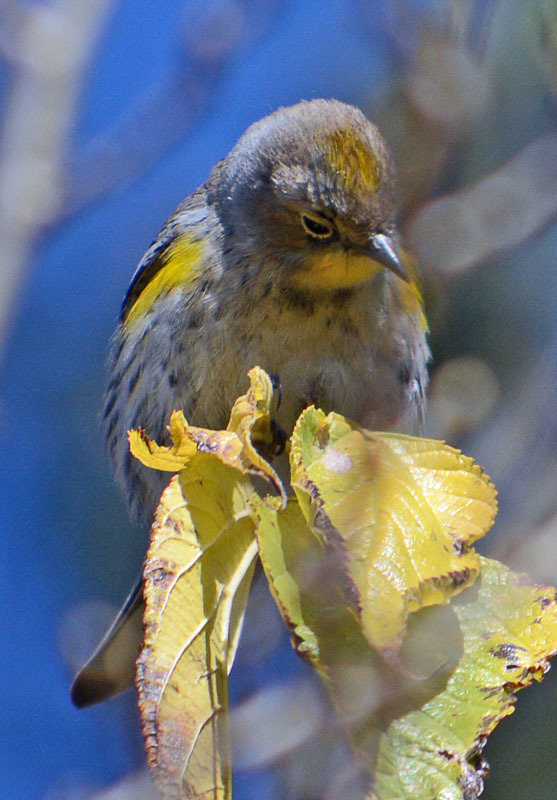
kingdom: Animalia
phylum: Chordata
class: Aves
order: Passeriformes
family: Parulidae
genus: Setophaga
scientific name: Setophaga coronata
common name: Myrtle warbler
